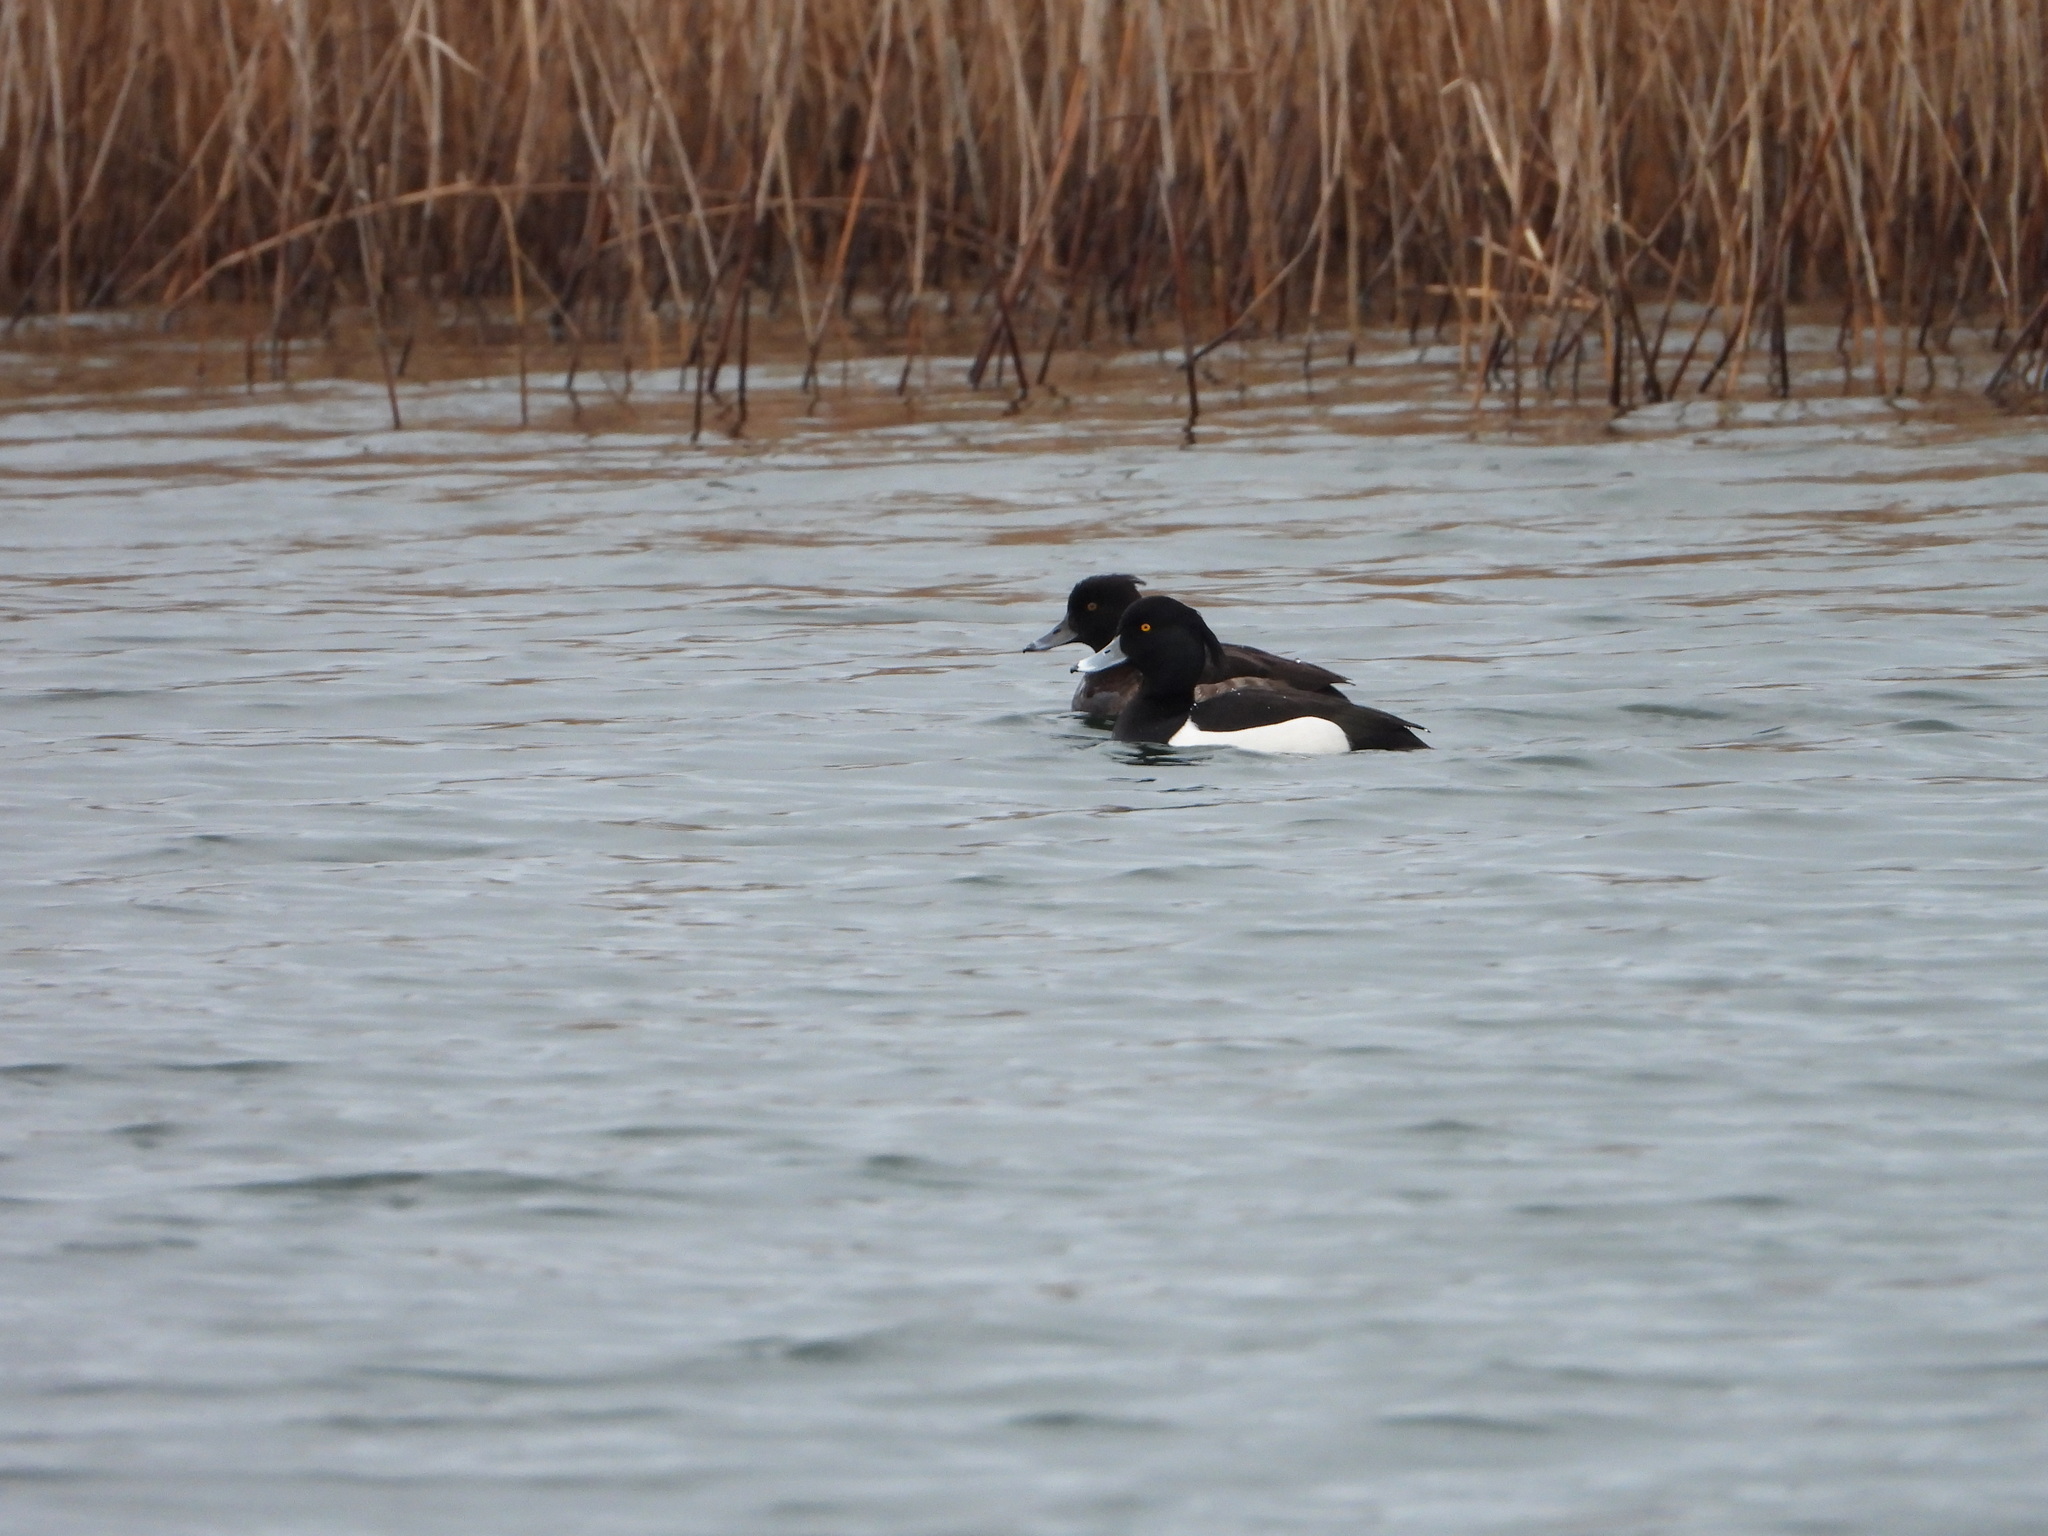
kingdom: Animalia
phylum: Chordata
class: Aves
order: Anseriformes
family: Anatidae
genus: Aythya
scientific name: Aythya fuligula
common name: Tufted duck
